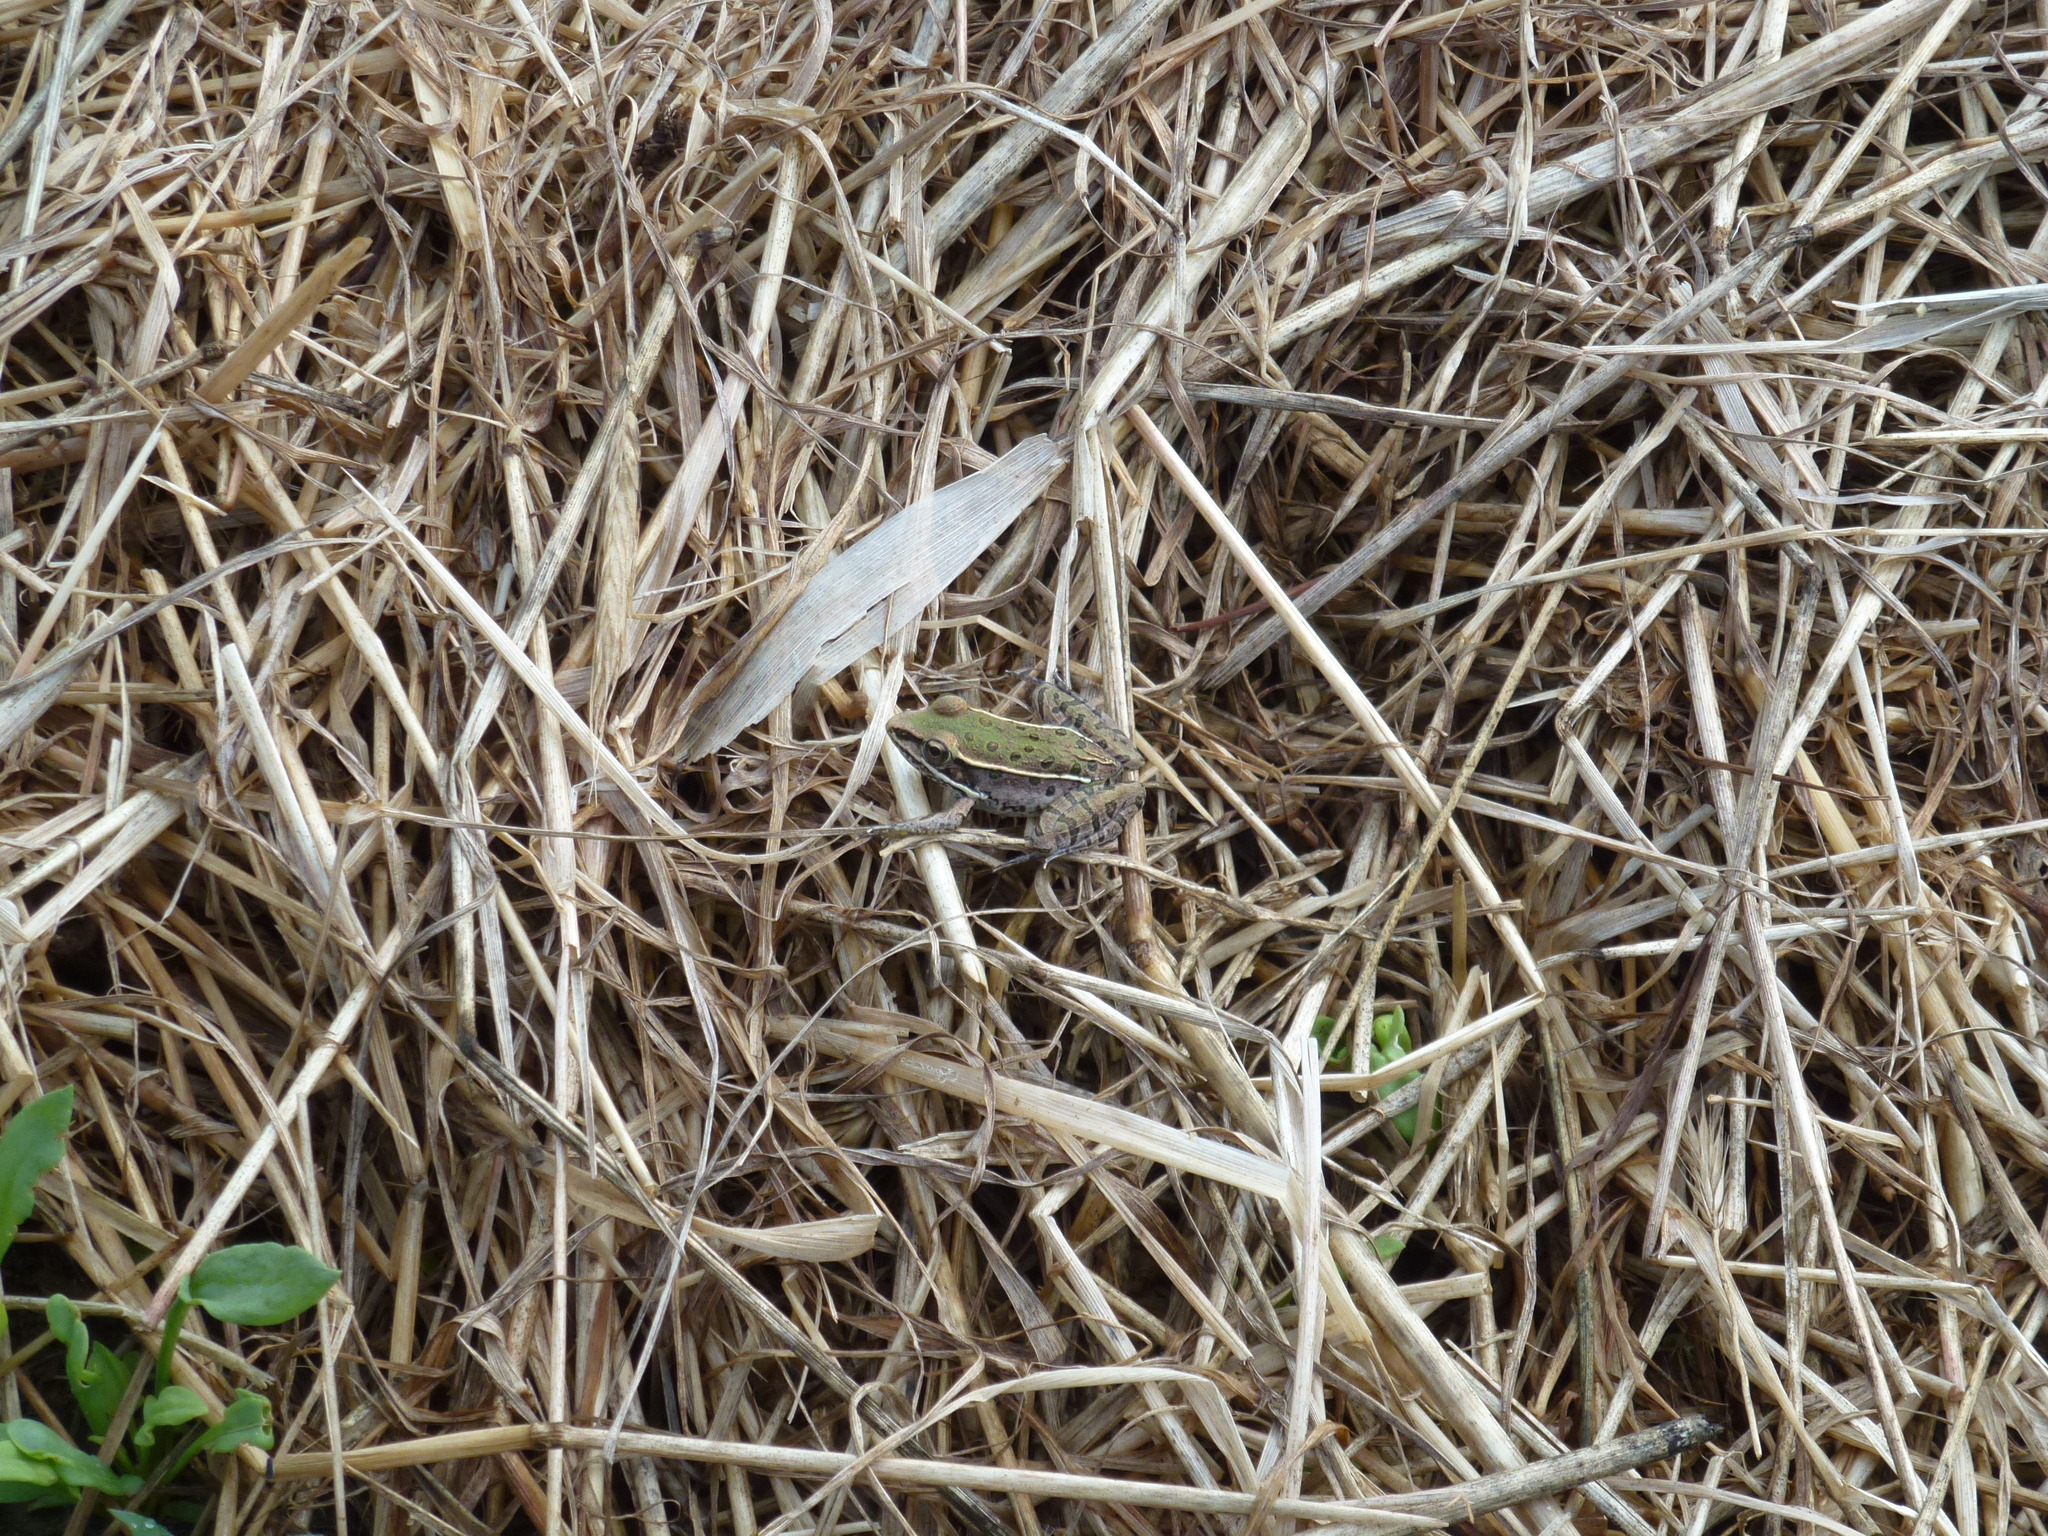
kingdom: Animalia
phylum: Chordata
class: Amphibia
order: Anura
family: Ranidae
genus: Lithobates
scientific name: Lithobates sphenocephalus
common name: Southern leopard frog
